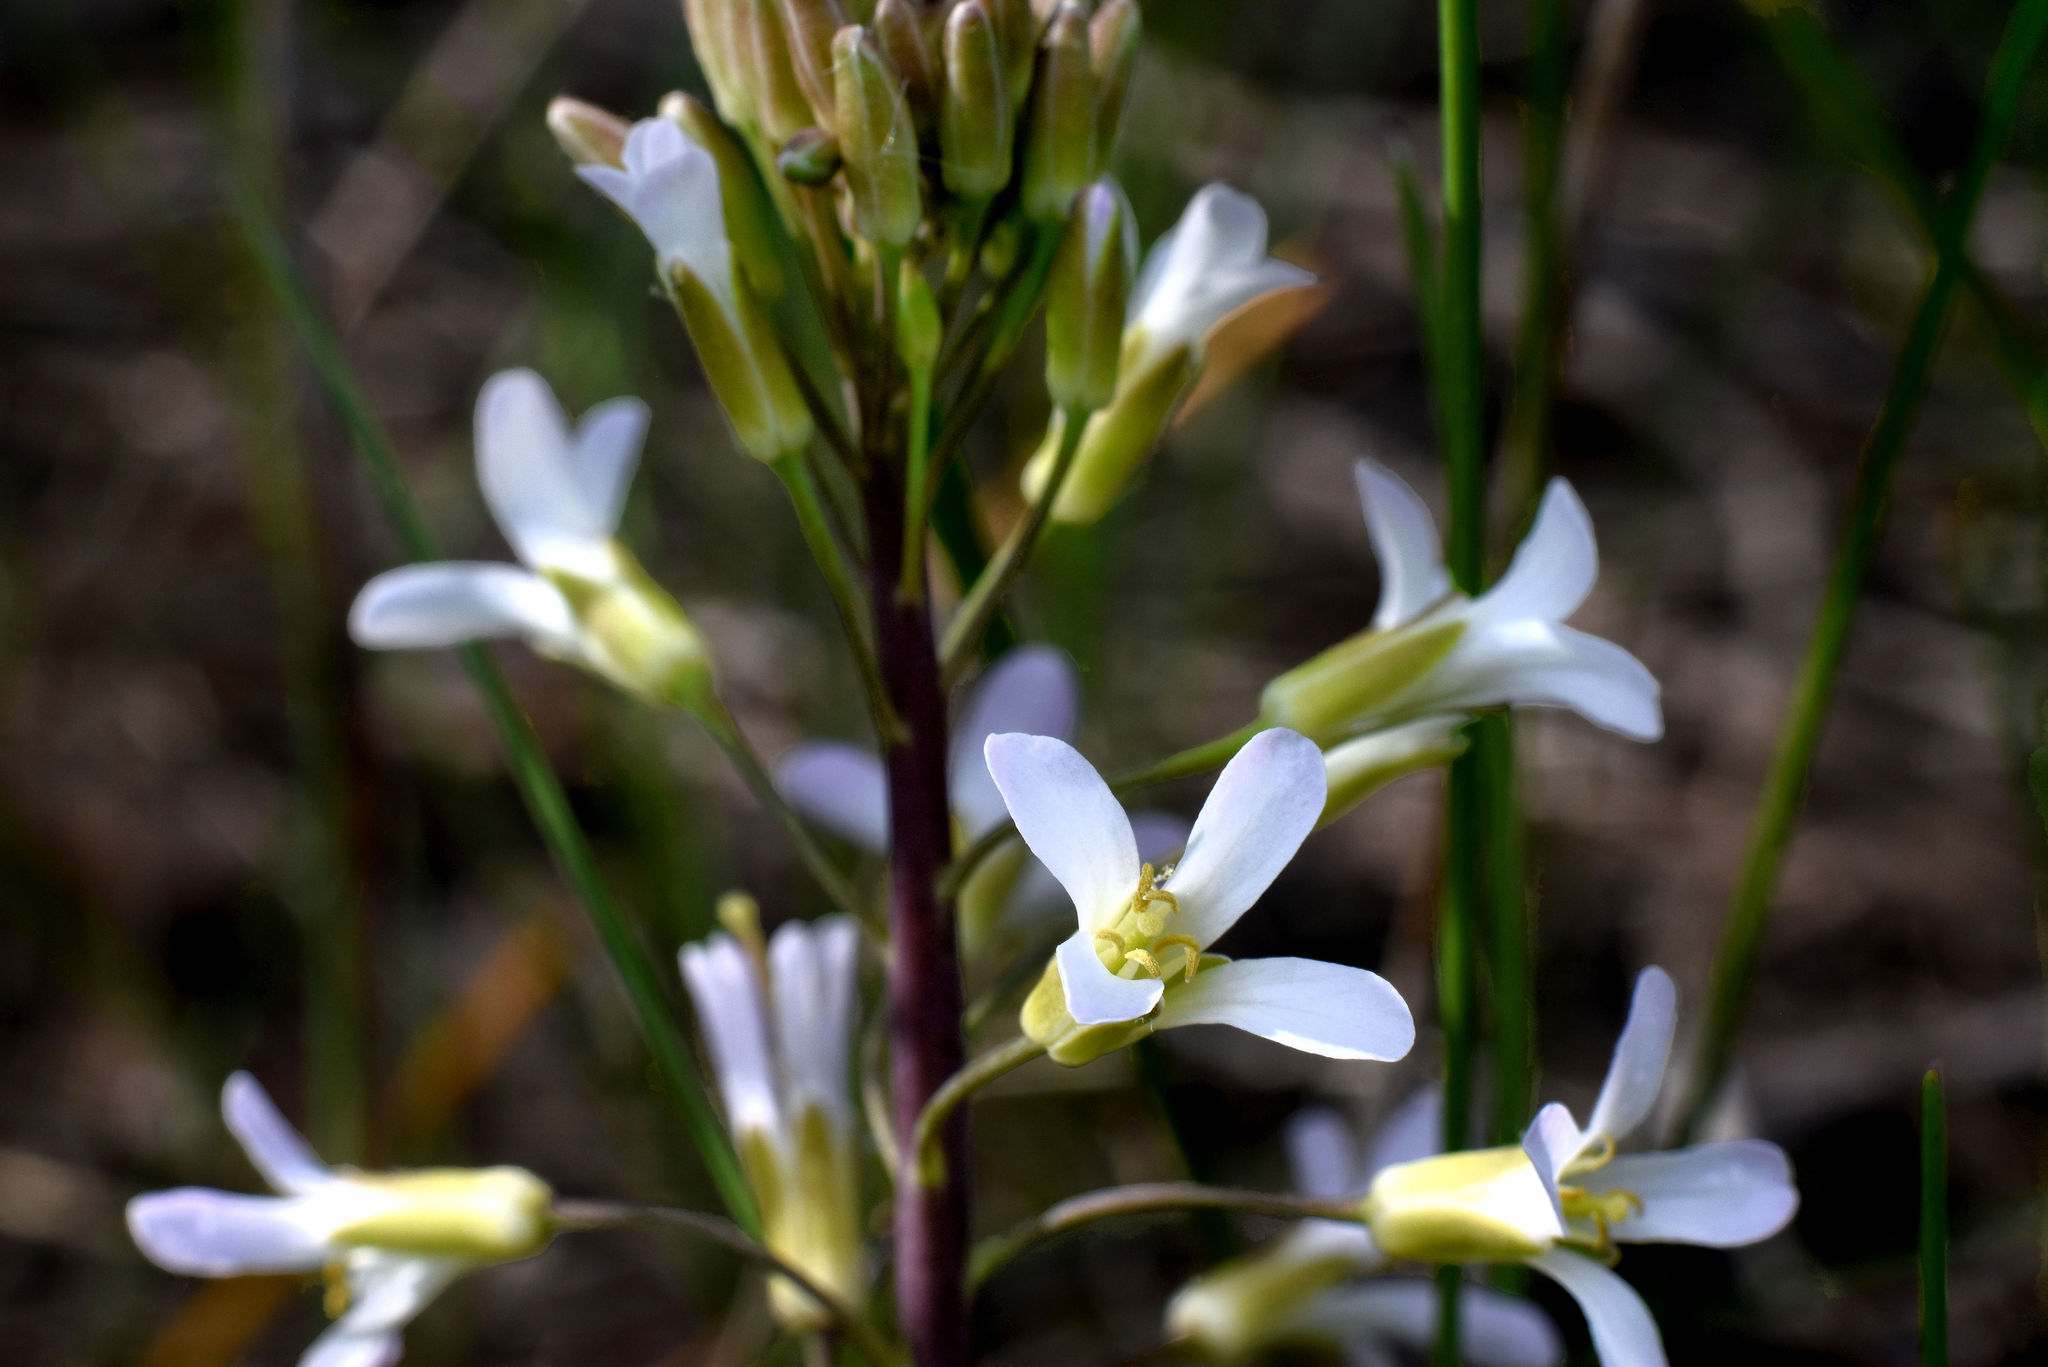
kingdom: Plantae
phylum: Tracheophyta
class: Magnoliopsida
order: Brassicales
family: Brassicaceae
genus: Boechera
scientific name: Boechera grahamii
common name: Graham's rockcress
